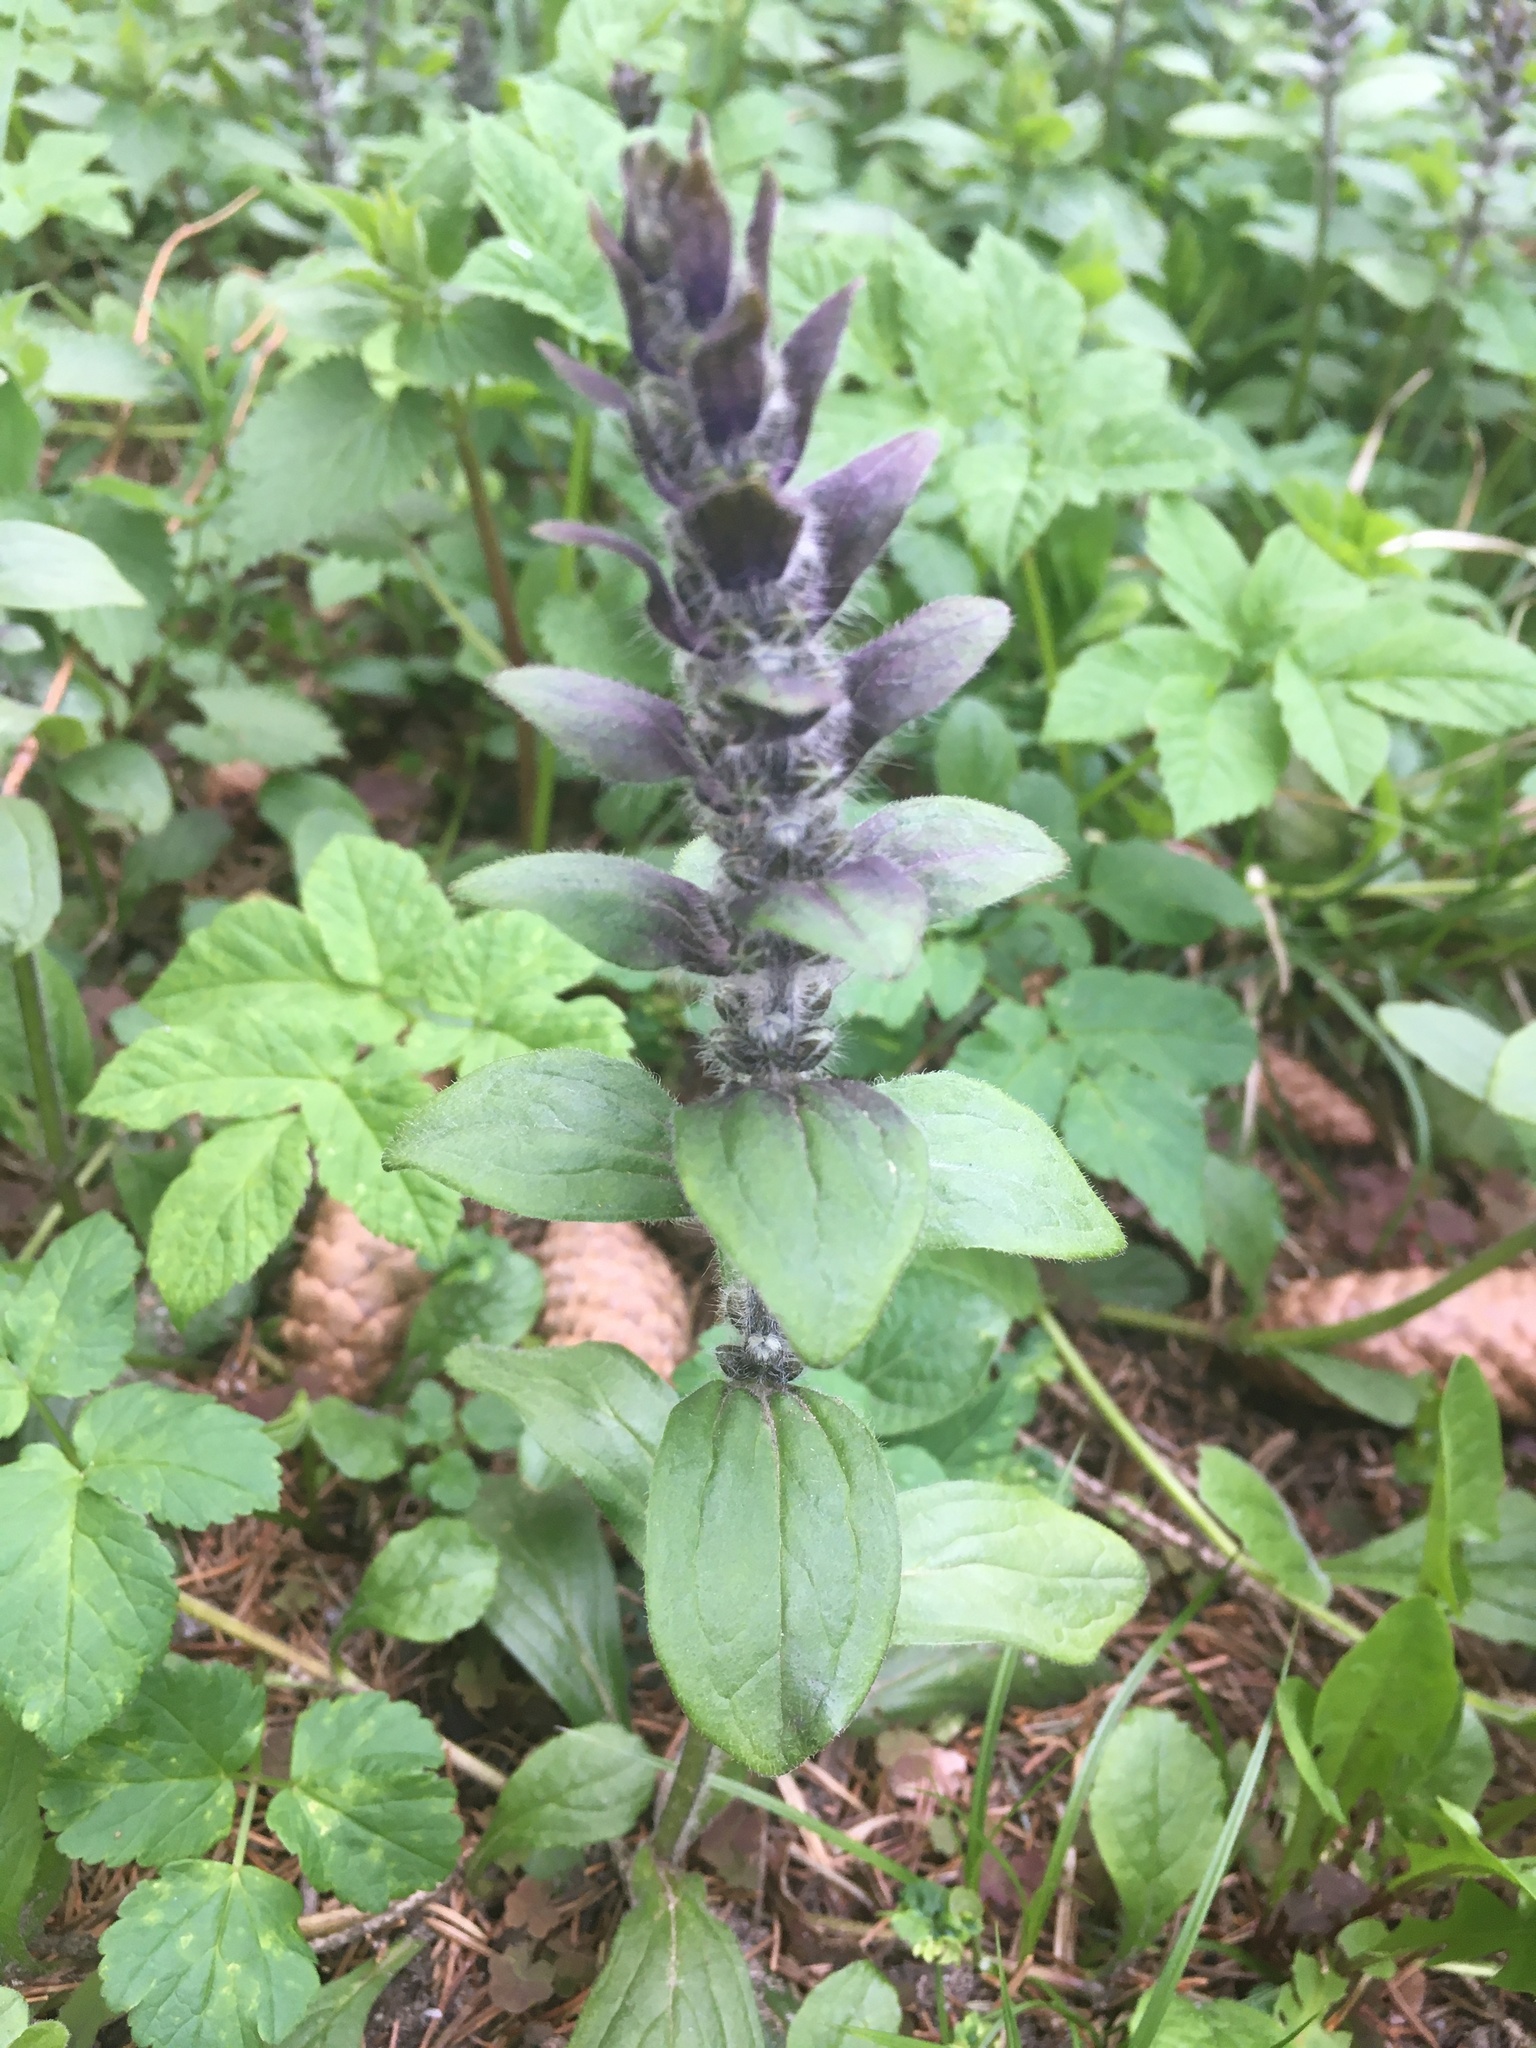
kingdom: Plantae
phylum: Tracheophyta
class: Magnoliopsida
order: Lamiales
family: Lamiaceae
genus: Ajuga
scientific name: Ajuga reptans
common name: Bugle
